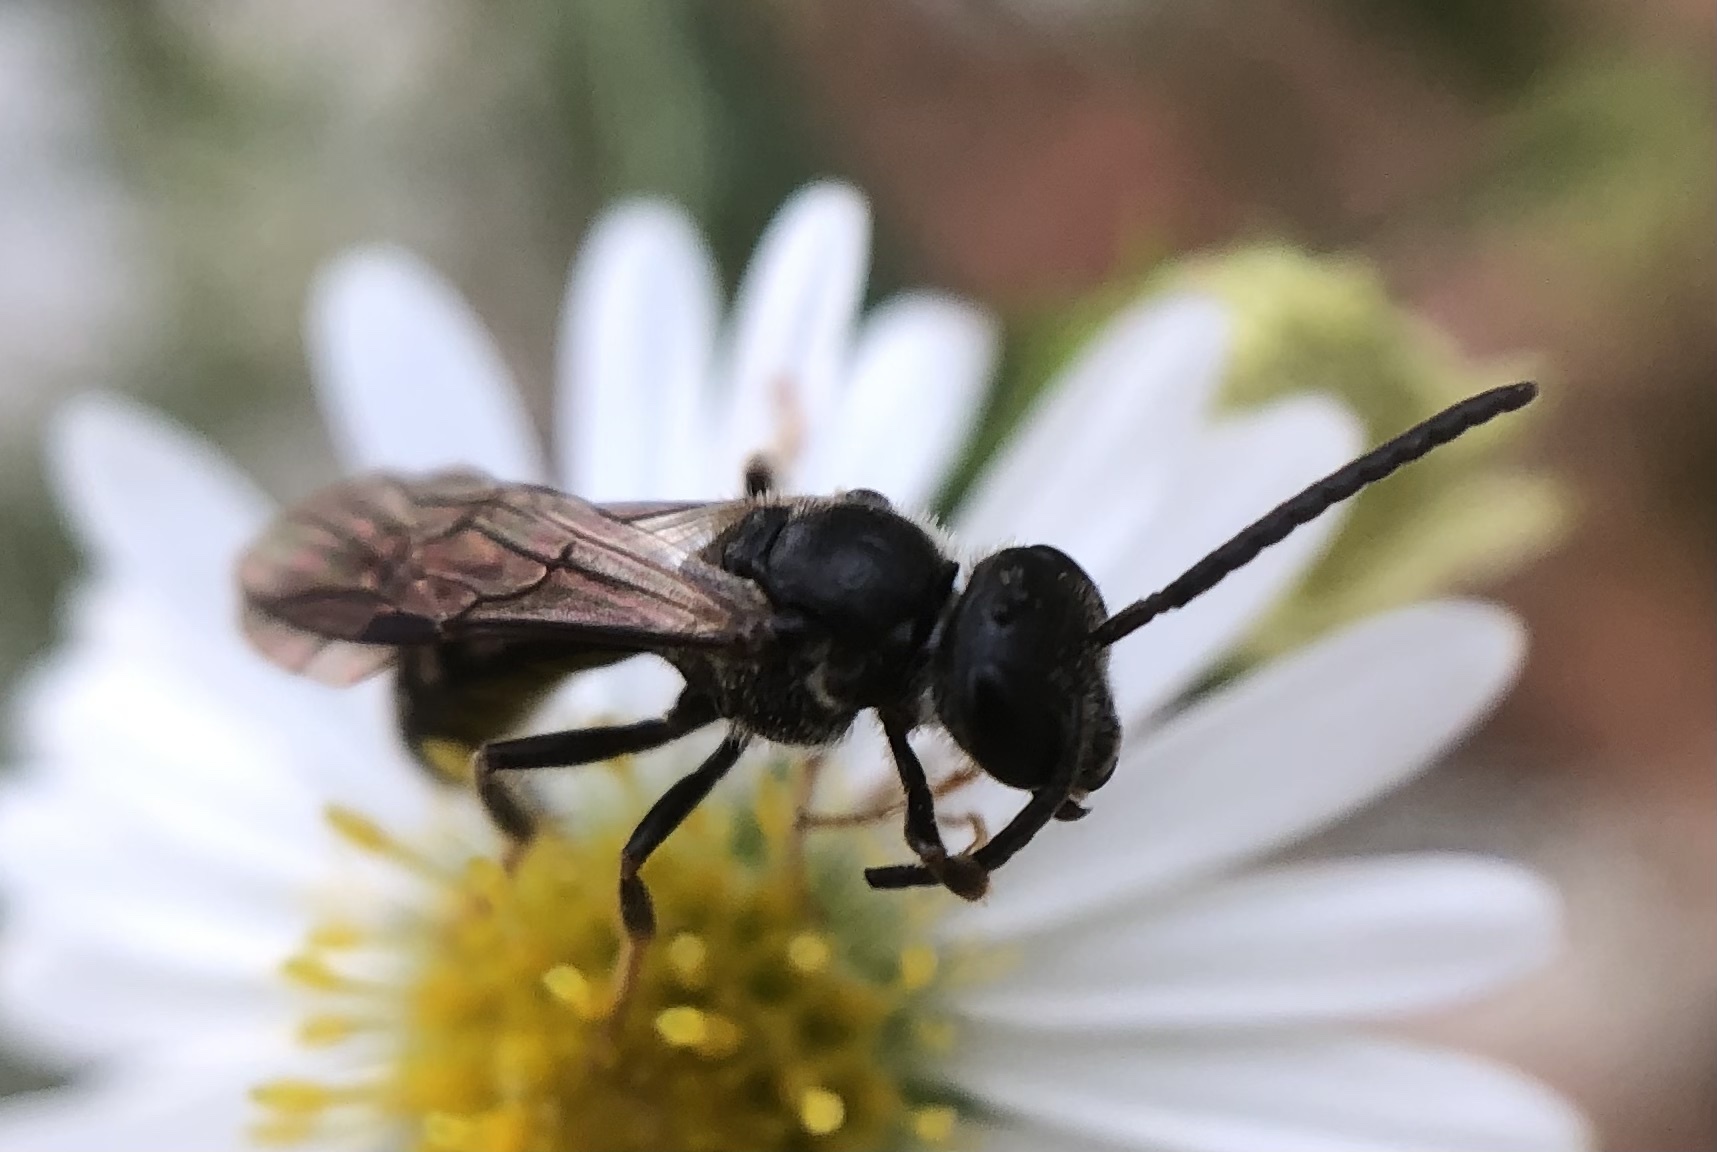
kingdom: Animalia
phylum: Arthropoda
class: Insecta
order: Hymenoptera
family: Halictidae
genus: Lasioglossum
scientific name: Lasioglossum fuscipenne
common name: Brown-winged sweat bee
